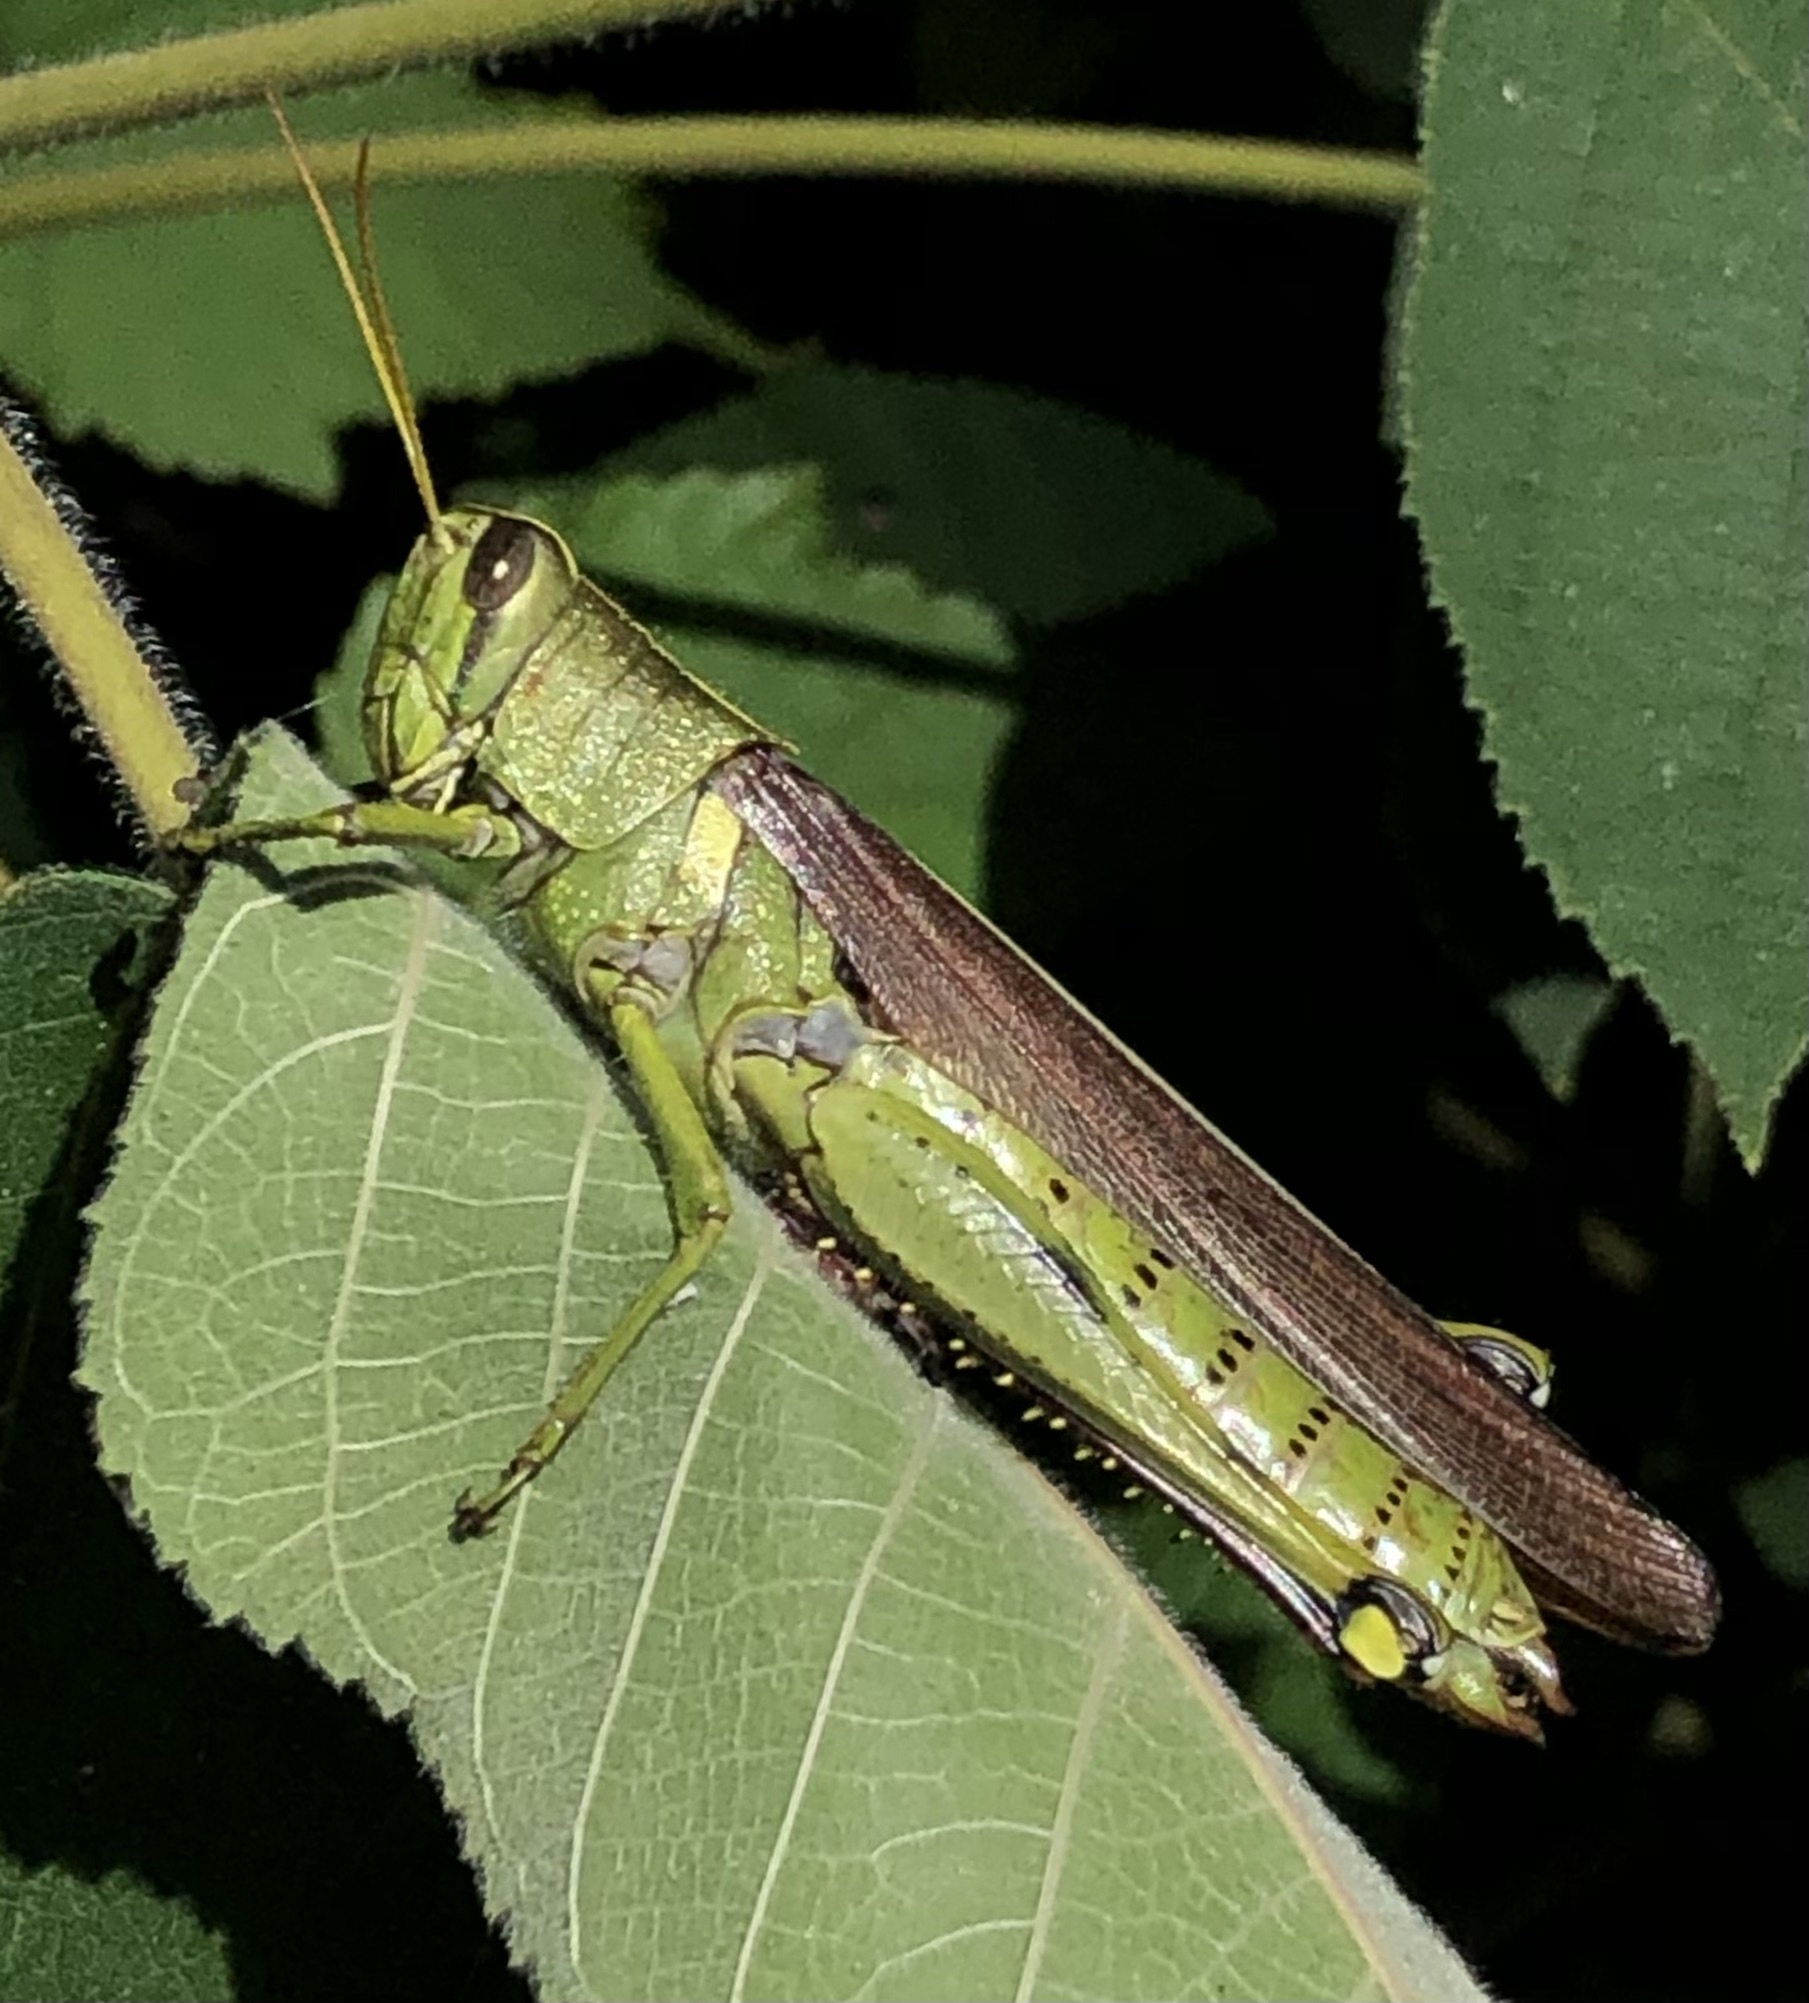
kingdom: Animalia
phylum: Arthropoda
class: Insecta
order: Orthoptera
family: Acrididae
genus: Schistocerca
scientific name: Schistocerca obscura
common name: Obscure bird grasshopper
